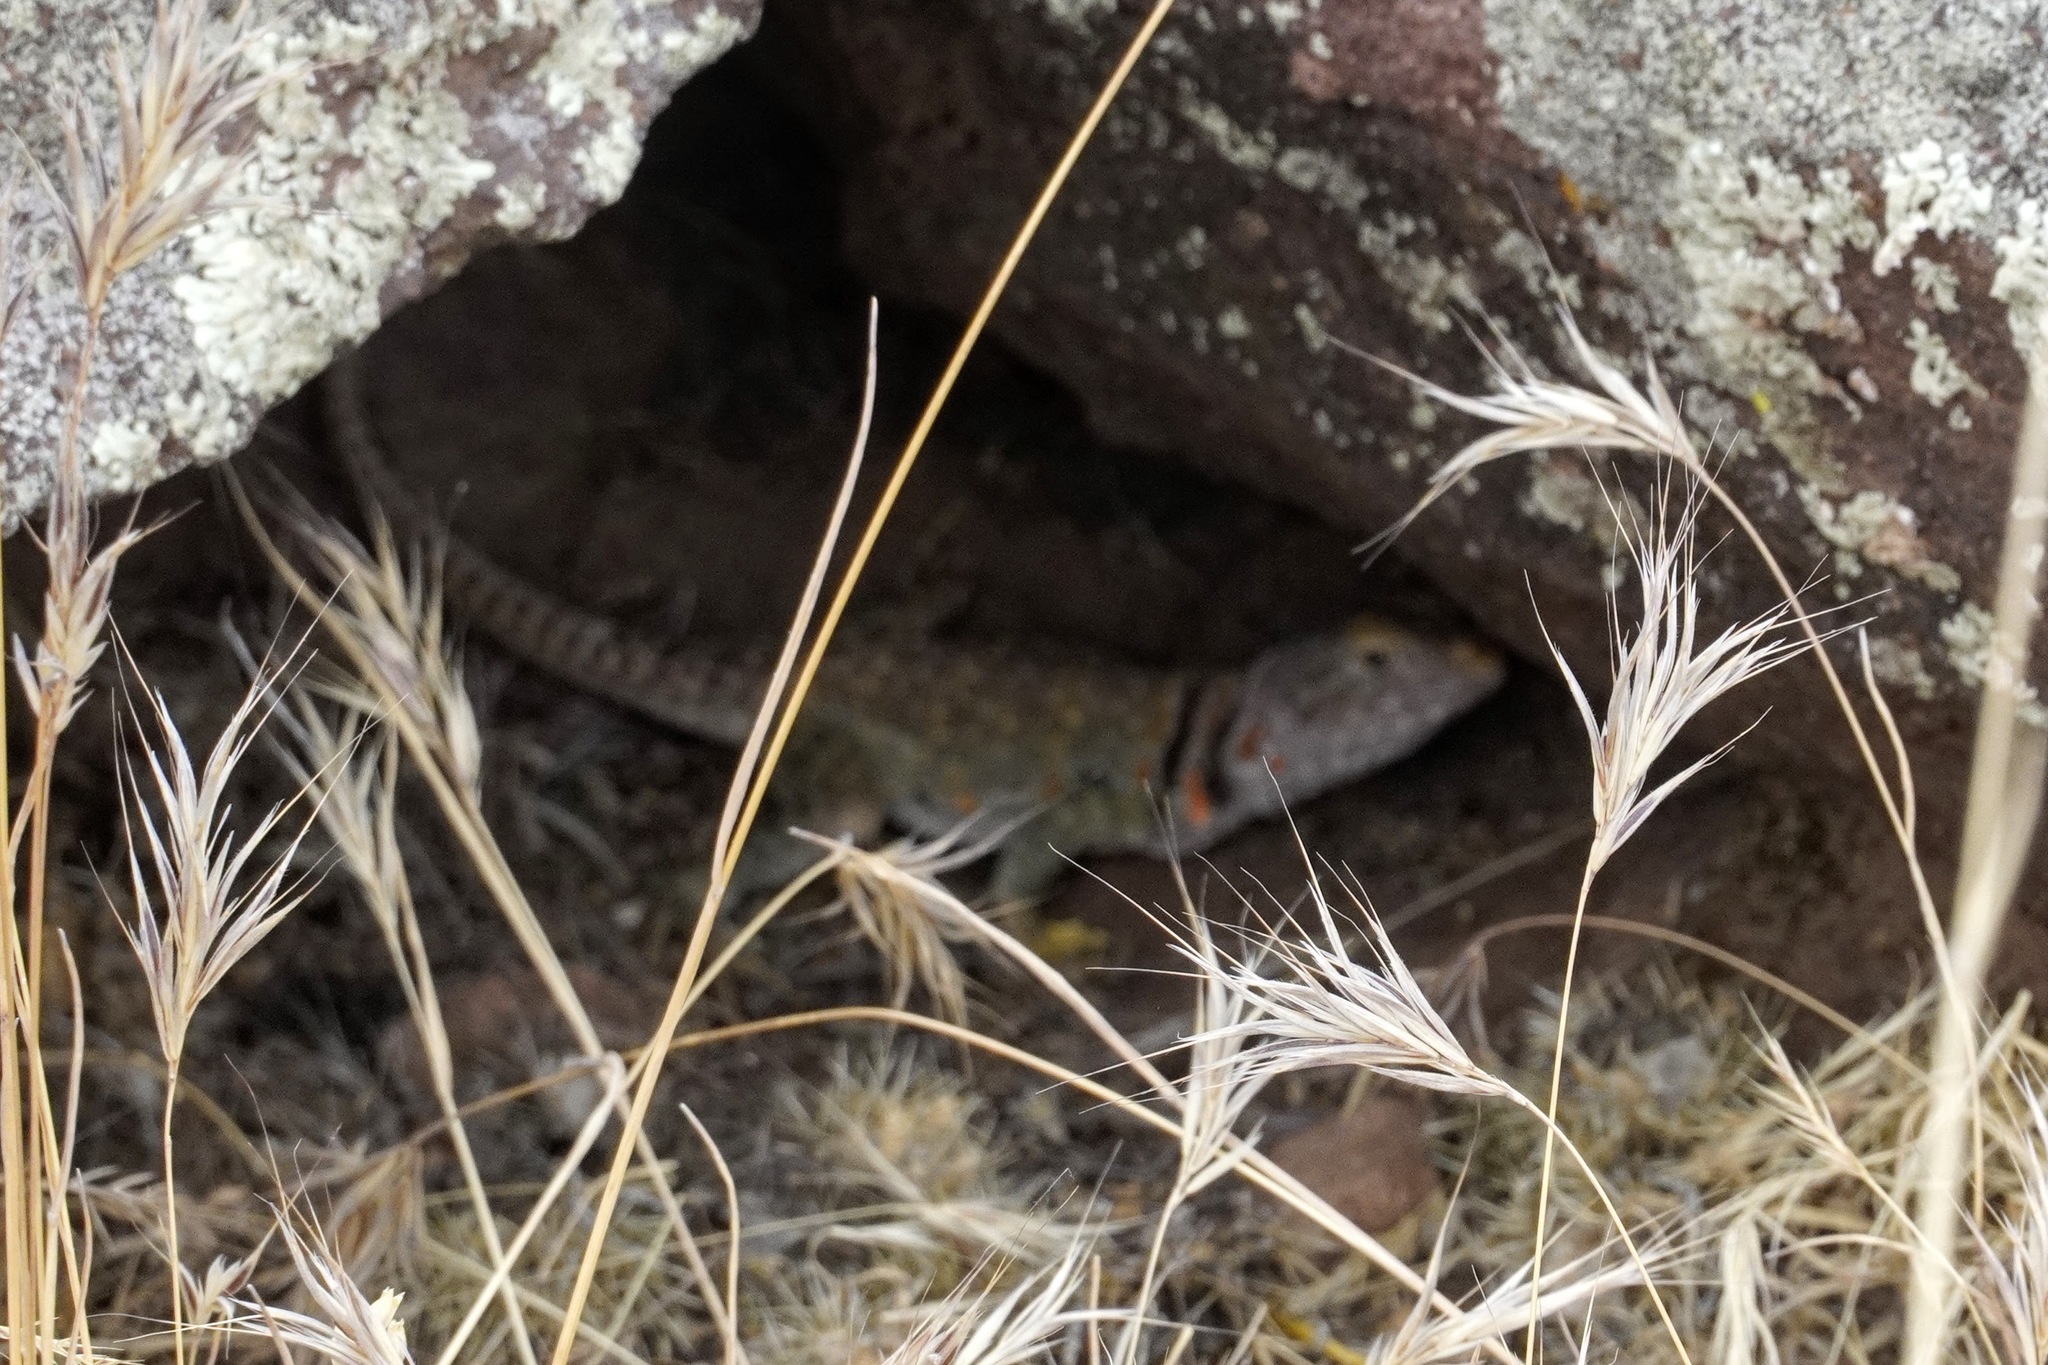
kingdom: Animalia
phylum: Chordata
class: Squamata
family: Crotaphytidae
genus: Crotaphytus
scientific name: Crotaphytus collaris
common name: Collared lizard
